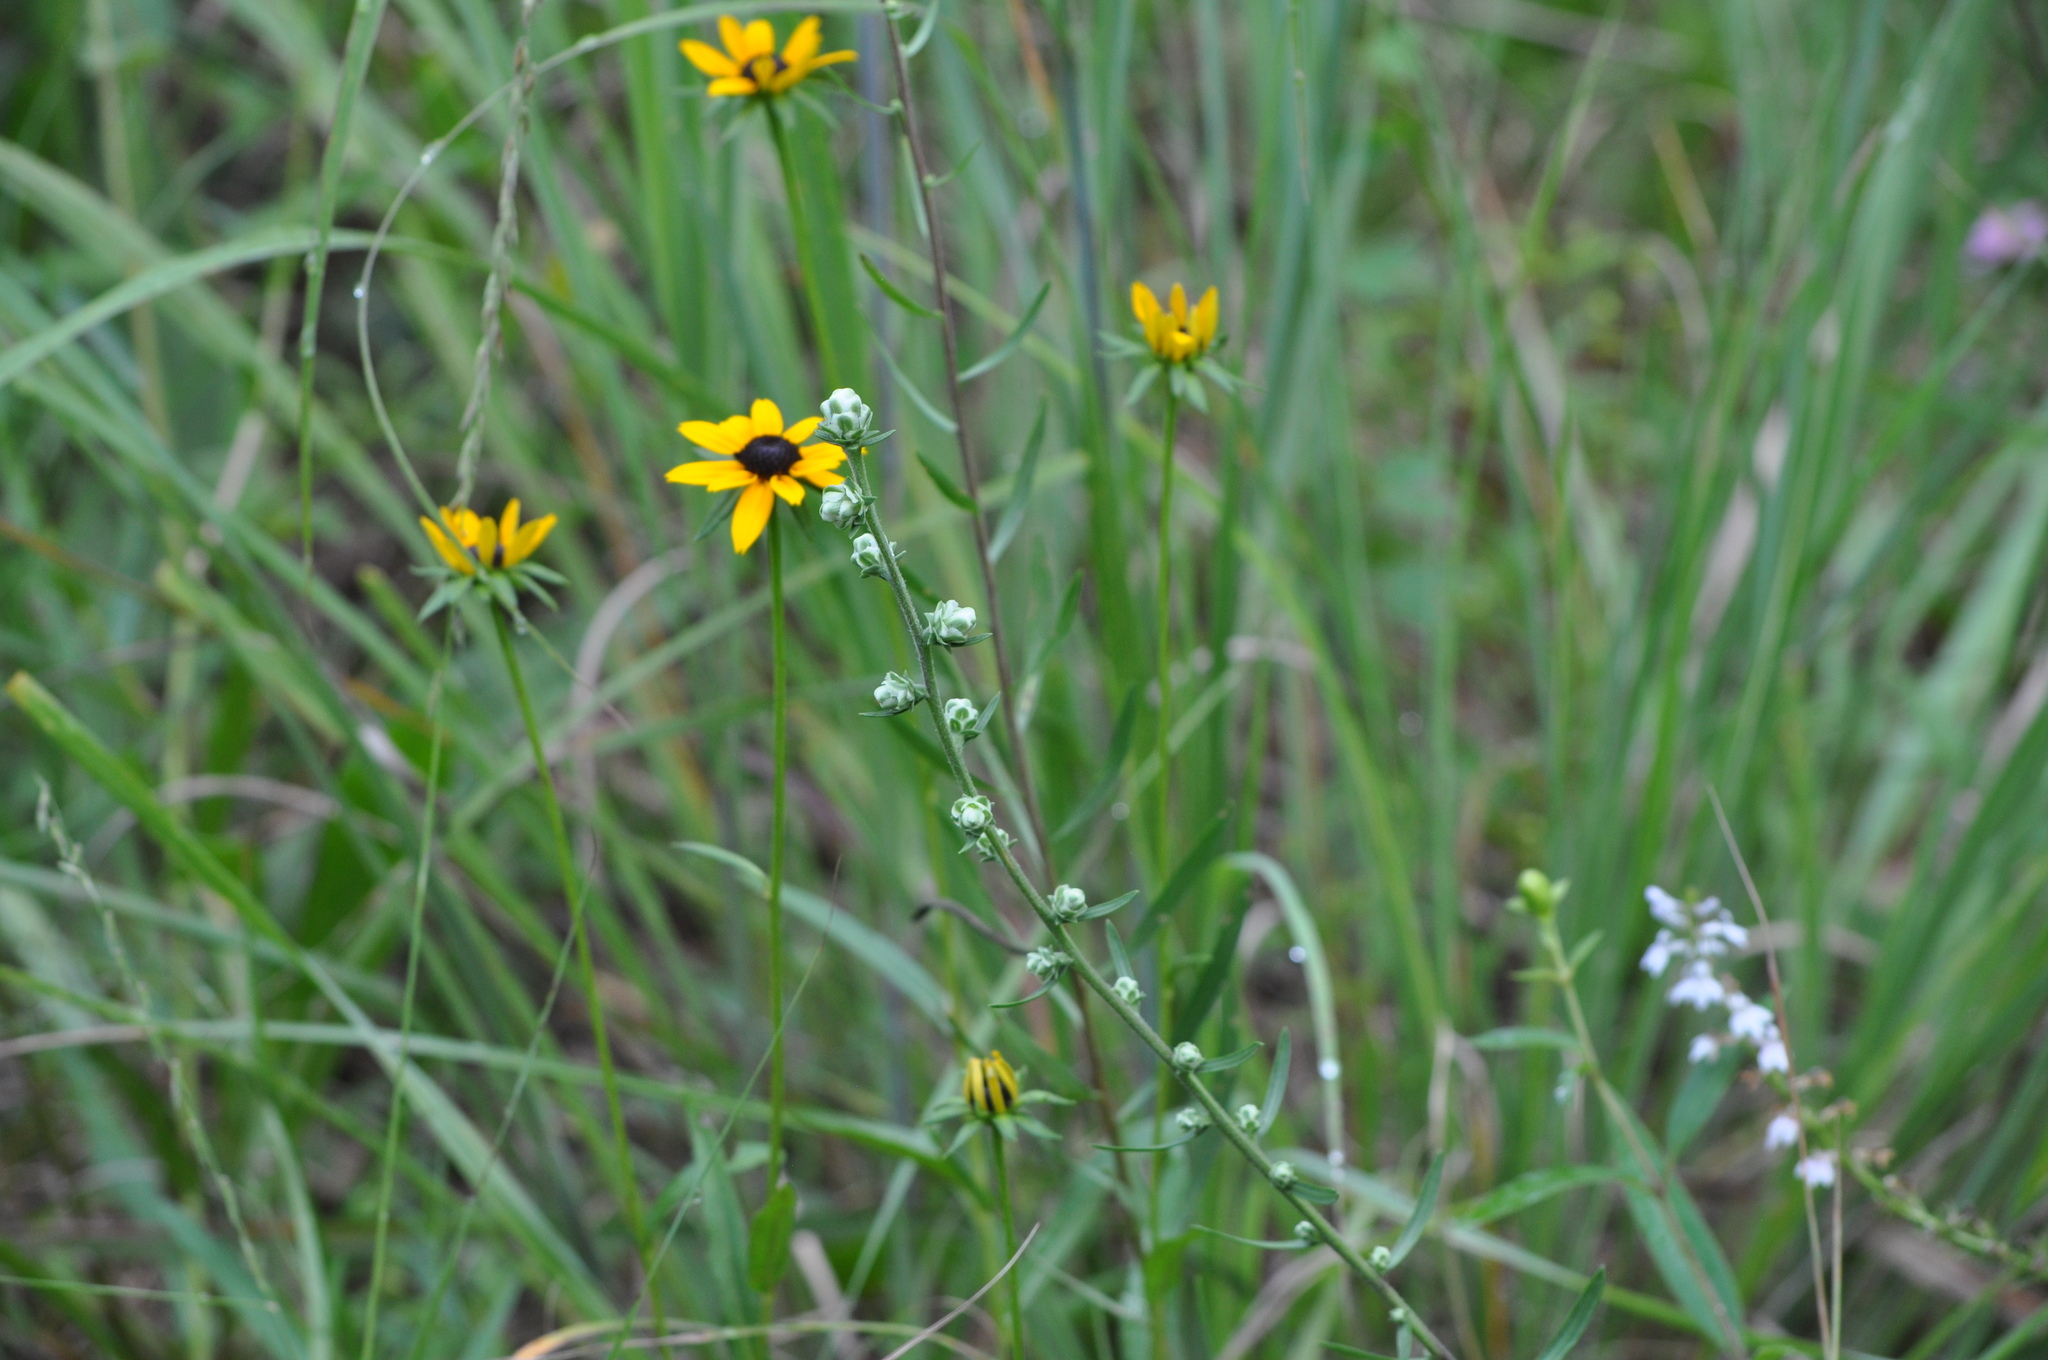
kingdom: Plantae
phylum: Tracheophyta
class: Magnoliopsida
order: Asterales
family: Asteraceae
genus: Liatris
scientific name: Liatris aspera
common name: Lacerate blazing-star
